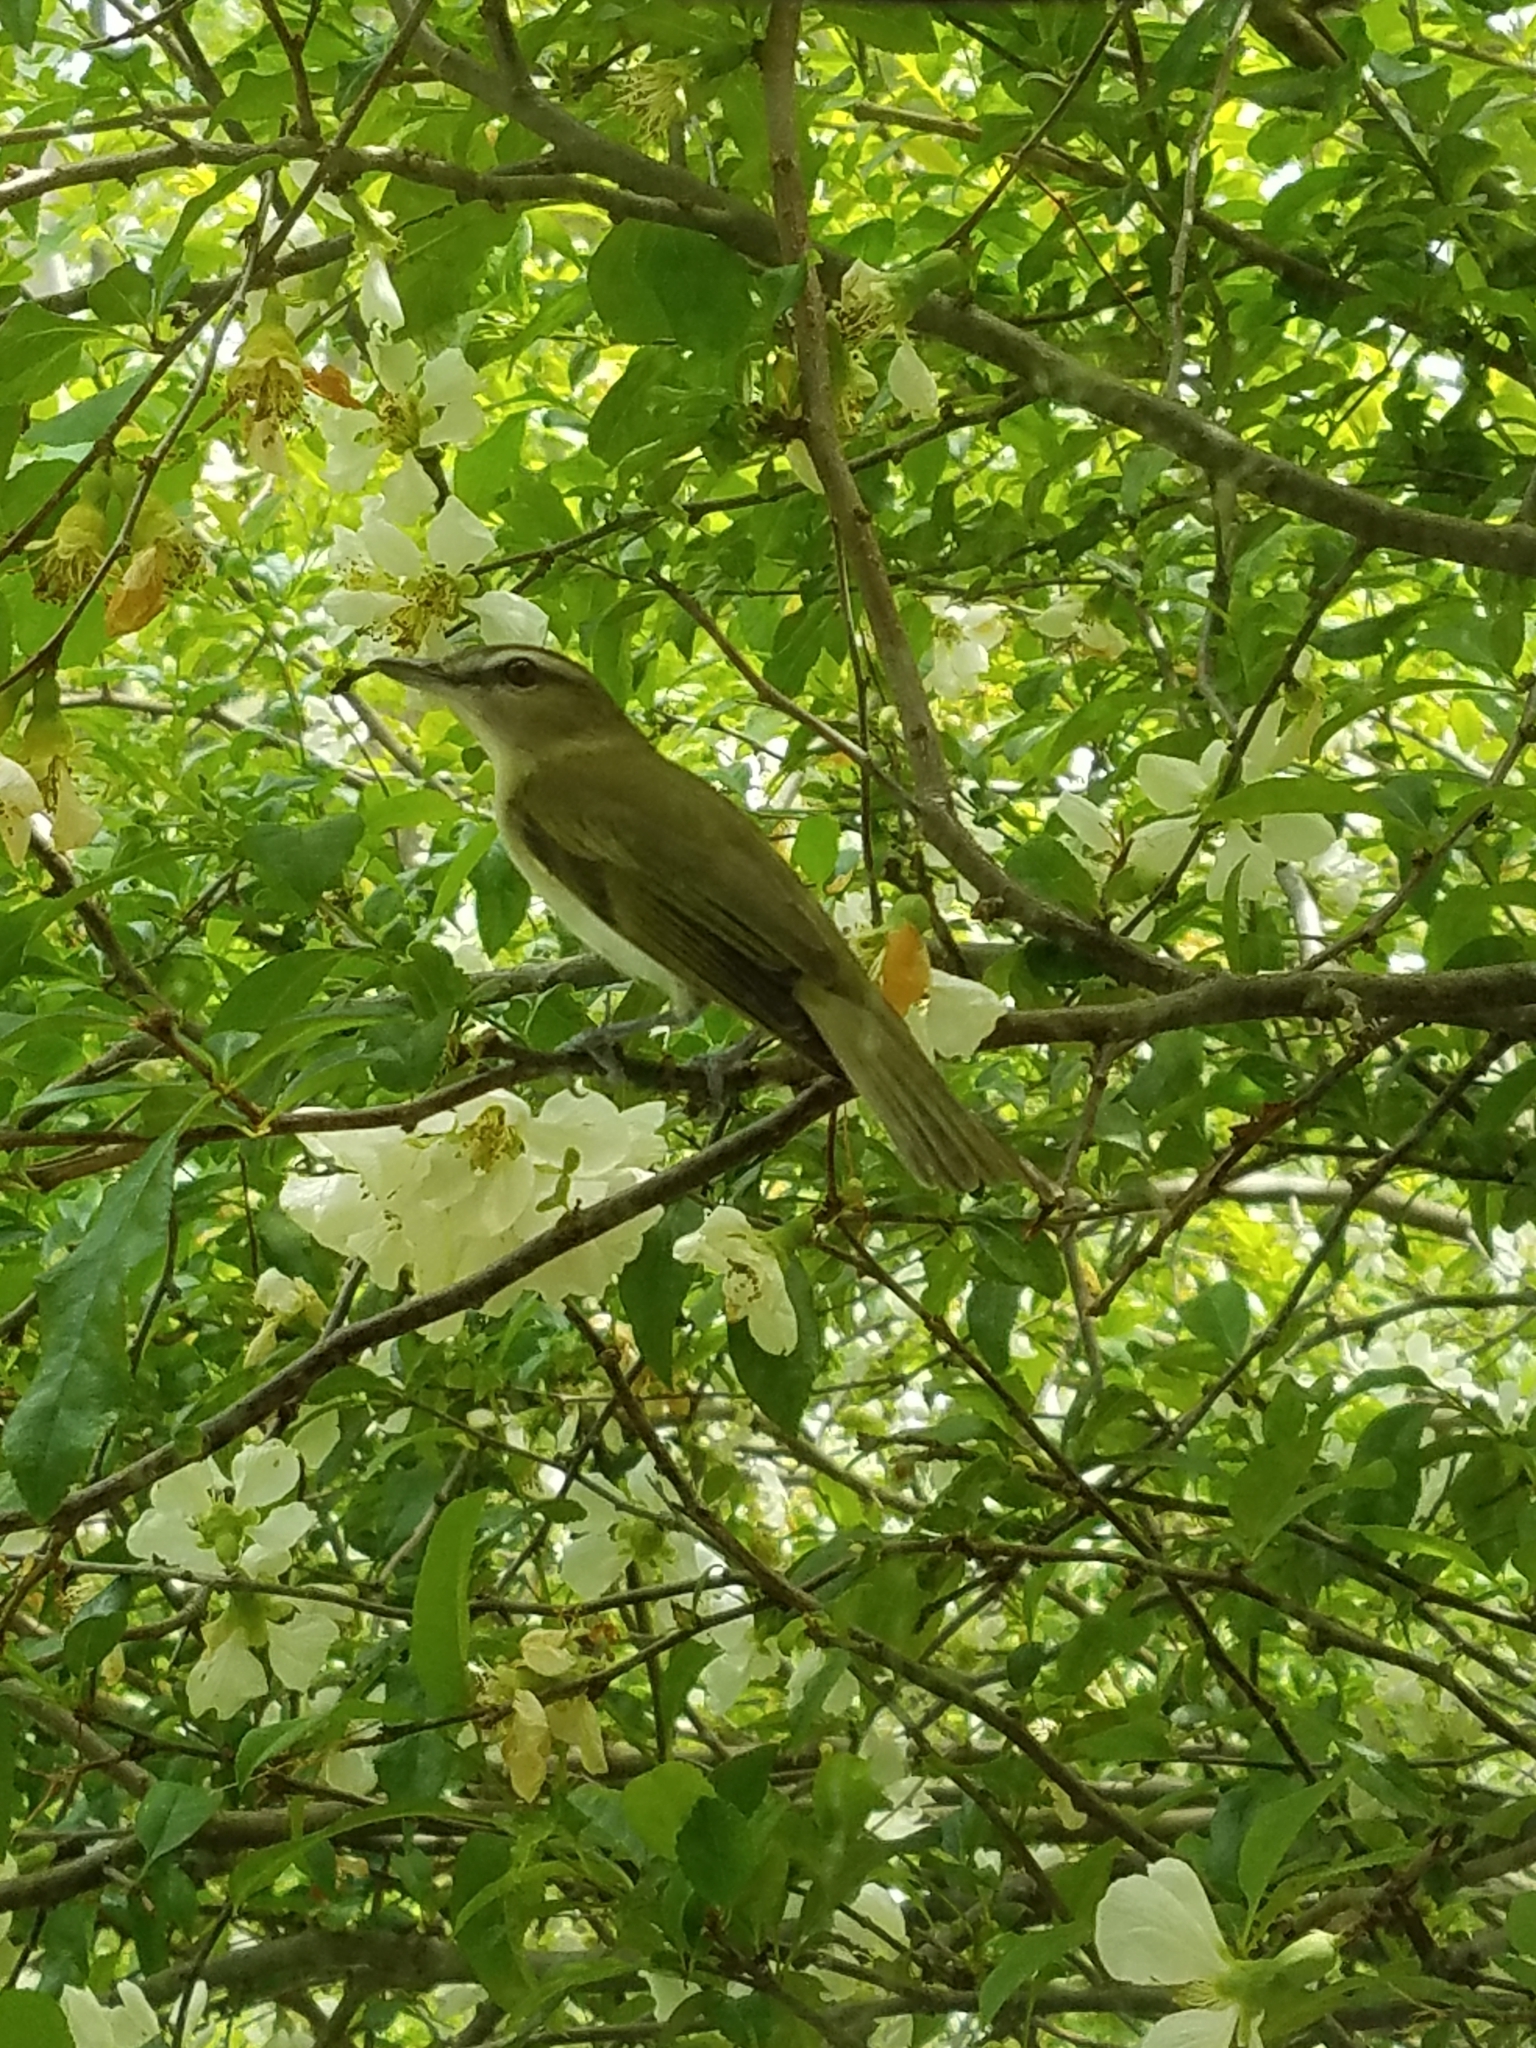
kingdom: Animalia
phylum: Chordata
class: Aves
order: Passeriformes
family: Vireonidae
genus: Vireo
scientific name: Vireo olivaceus
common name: Red-eyed vireo
